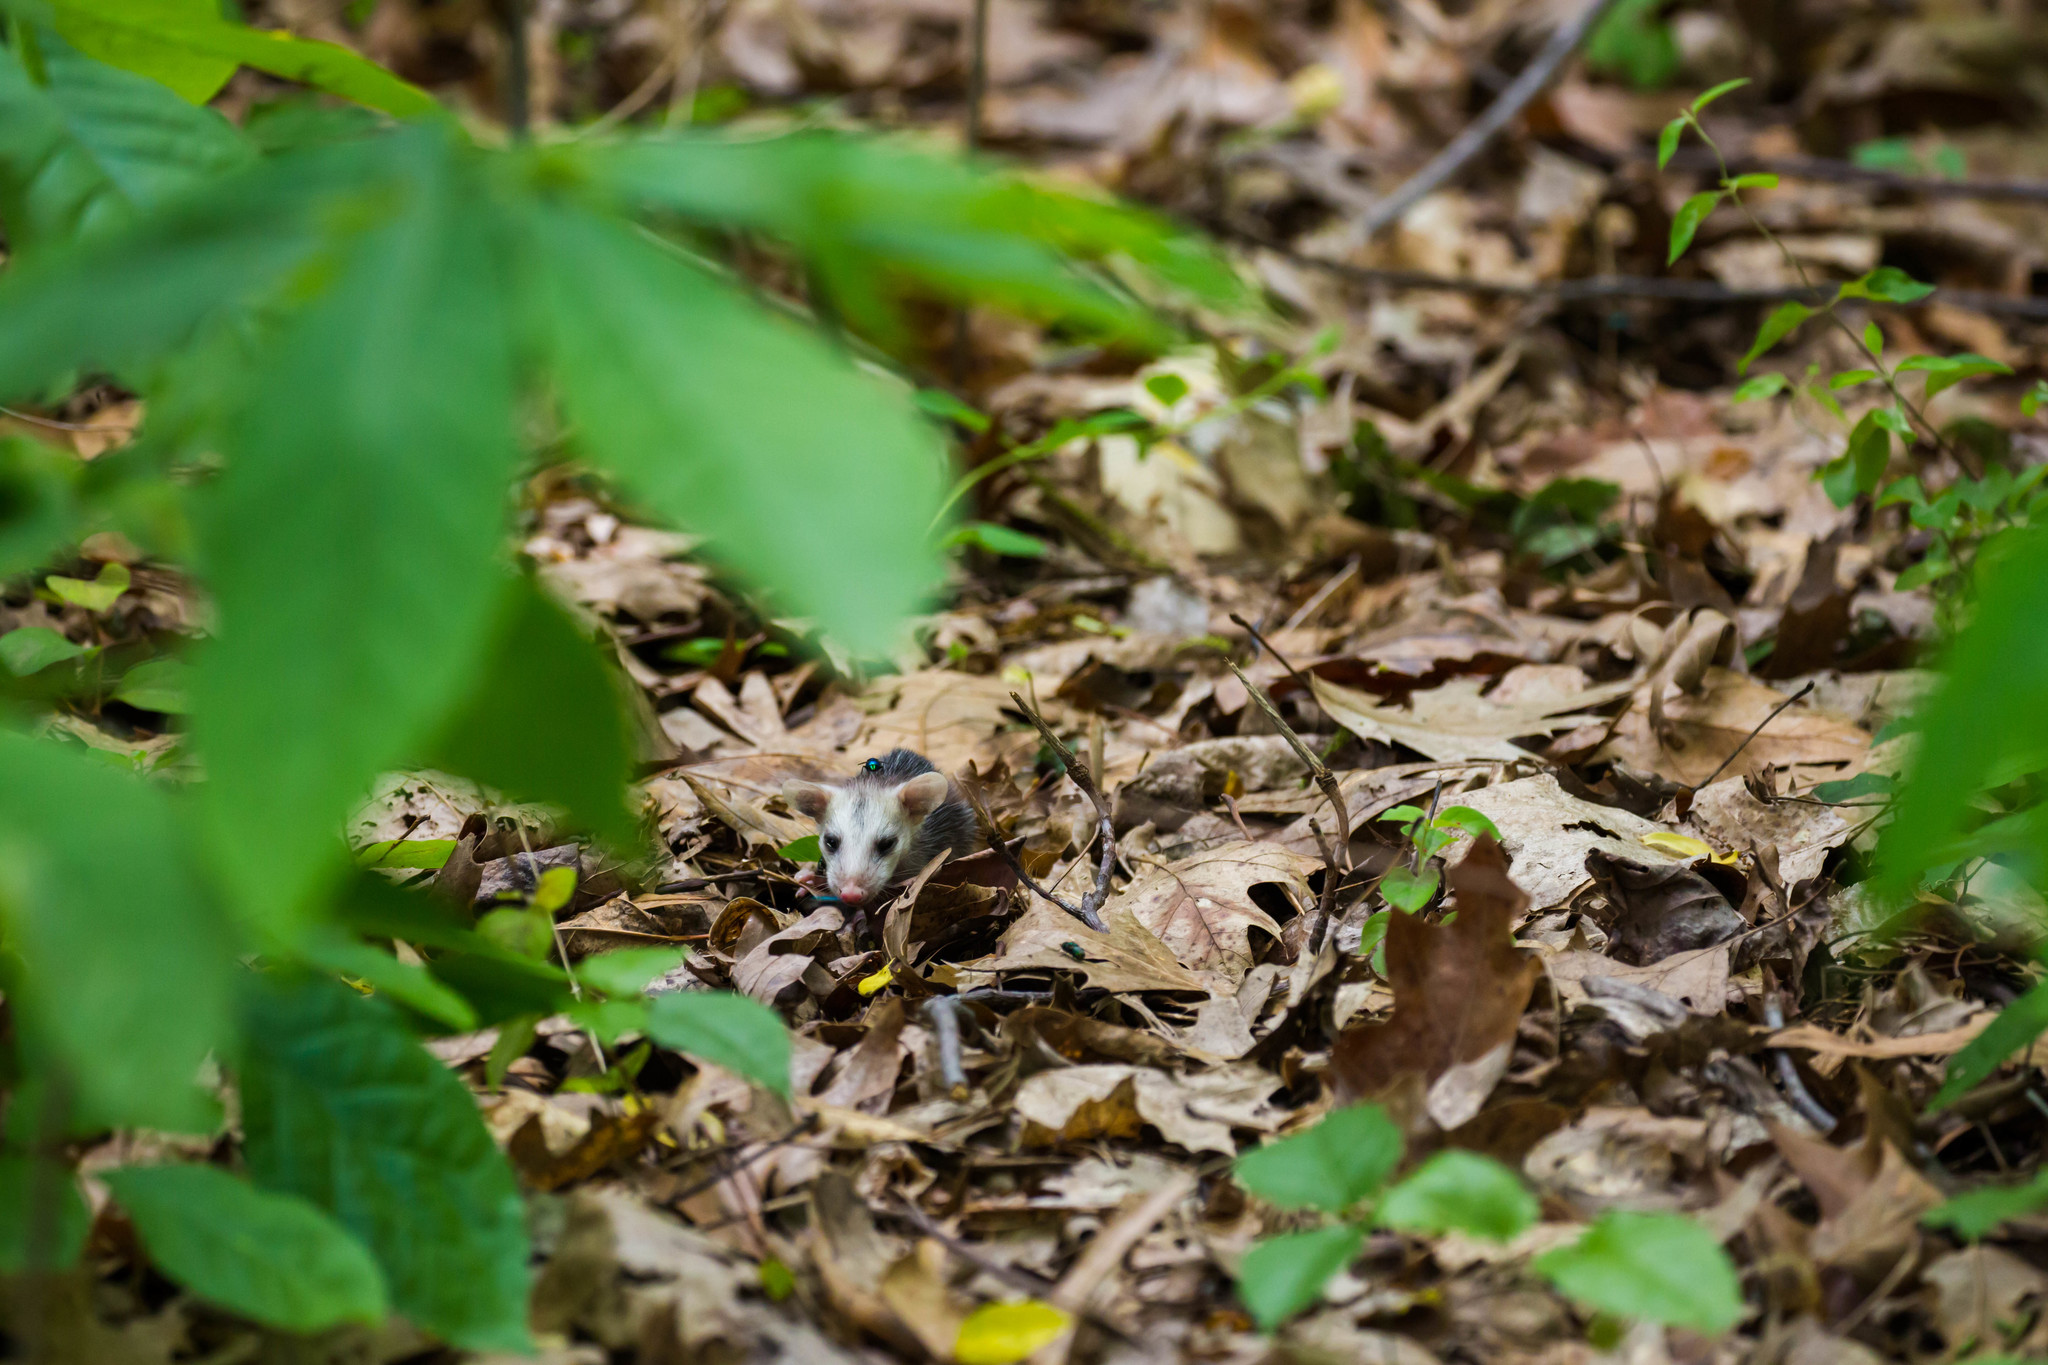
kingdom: Animalia
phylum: Chordata
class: Mammalia
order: Didelphimorphia
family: Didelphidae
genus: Didelphis
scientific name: Didelphis virginiana
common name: Virginia opossum
